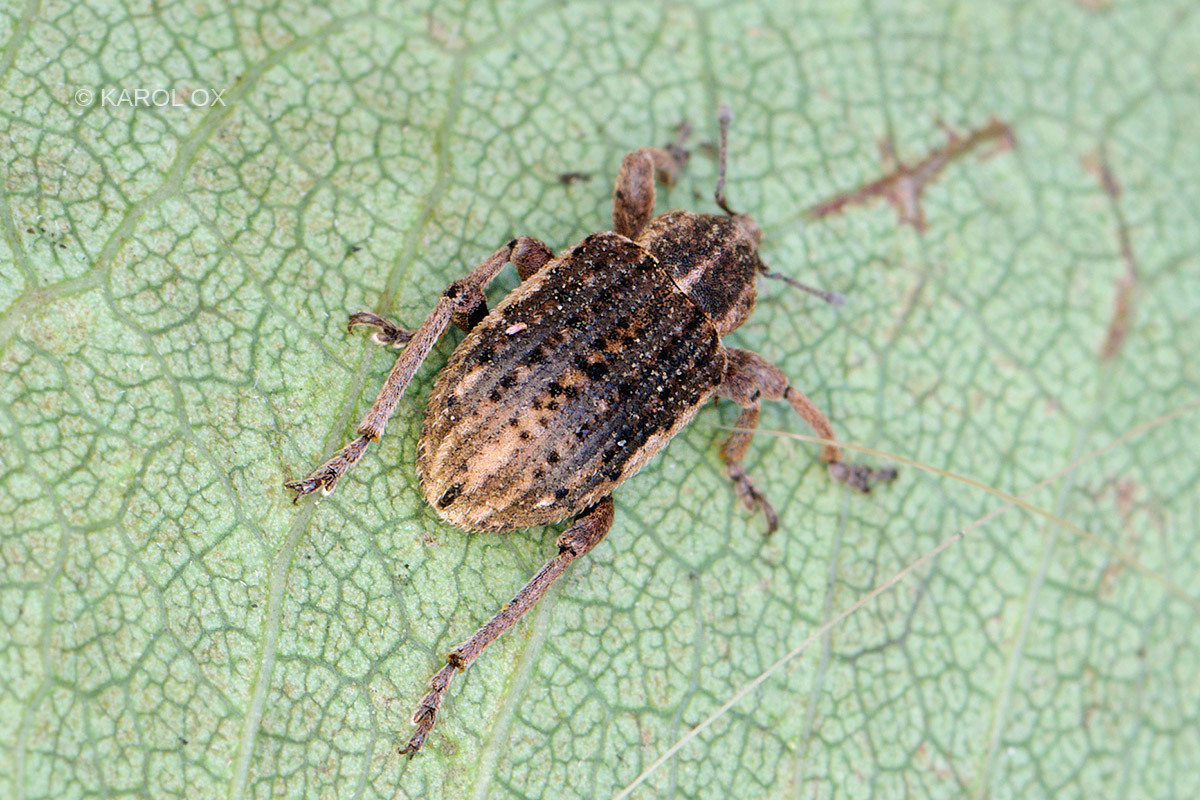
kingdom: Animalia
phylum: Arthropoda
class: Insecta
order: Coleoptera
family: Curculionidae
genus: Brachypera
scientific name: Brachypera zoilus
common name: Clover leaf weevil
